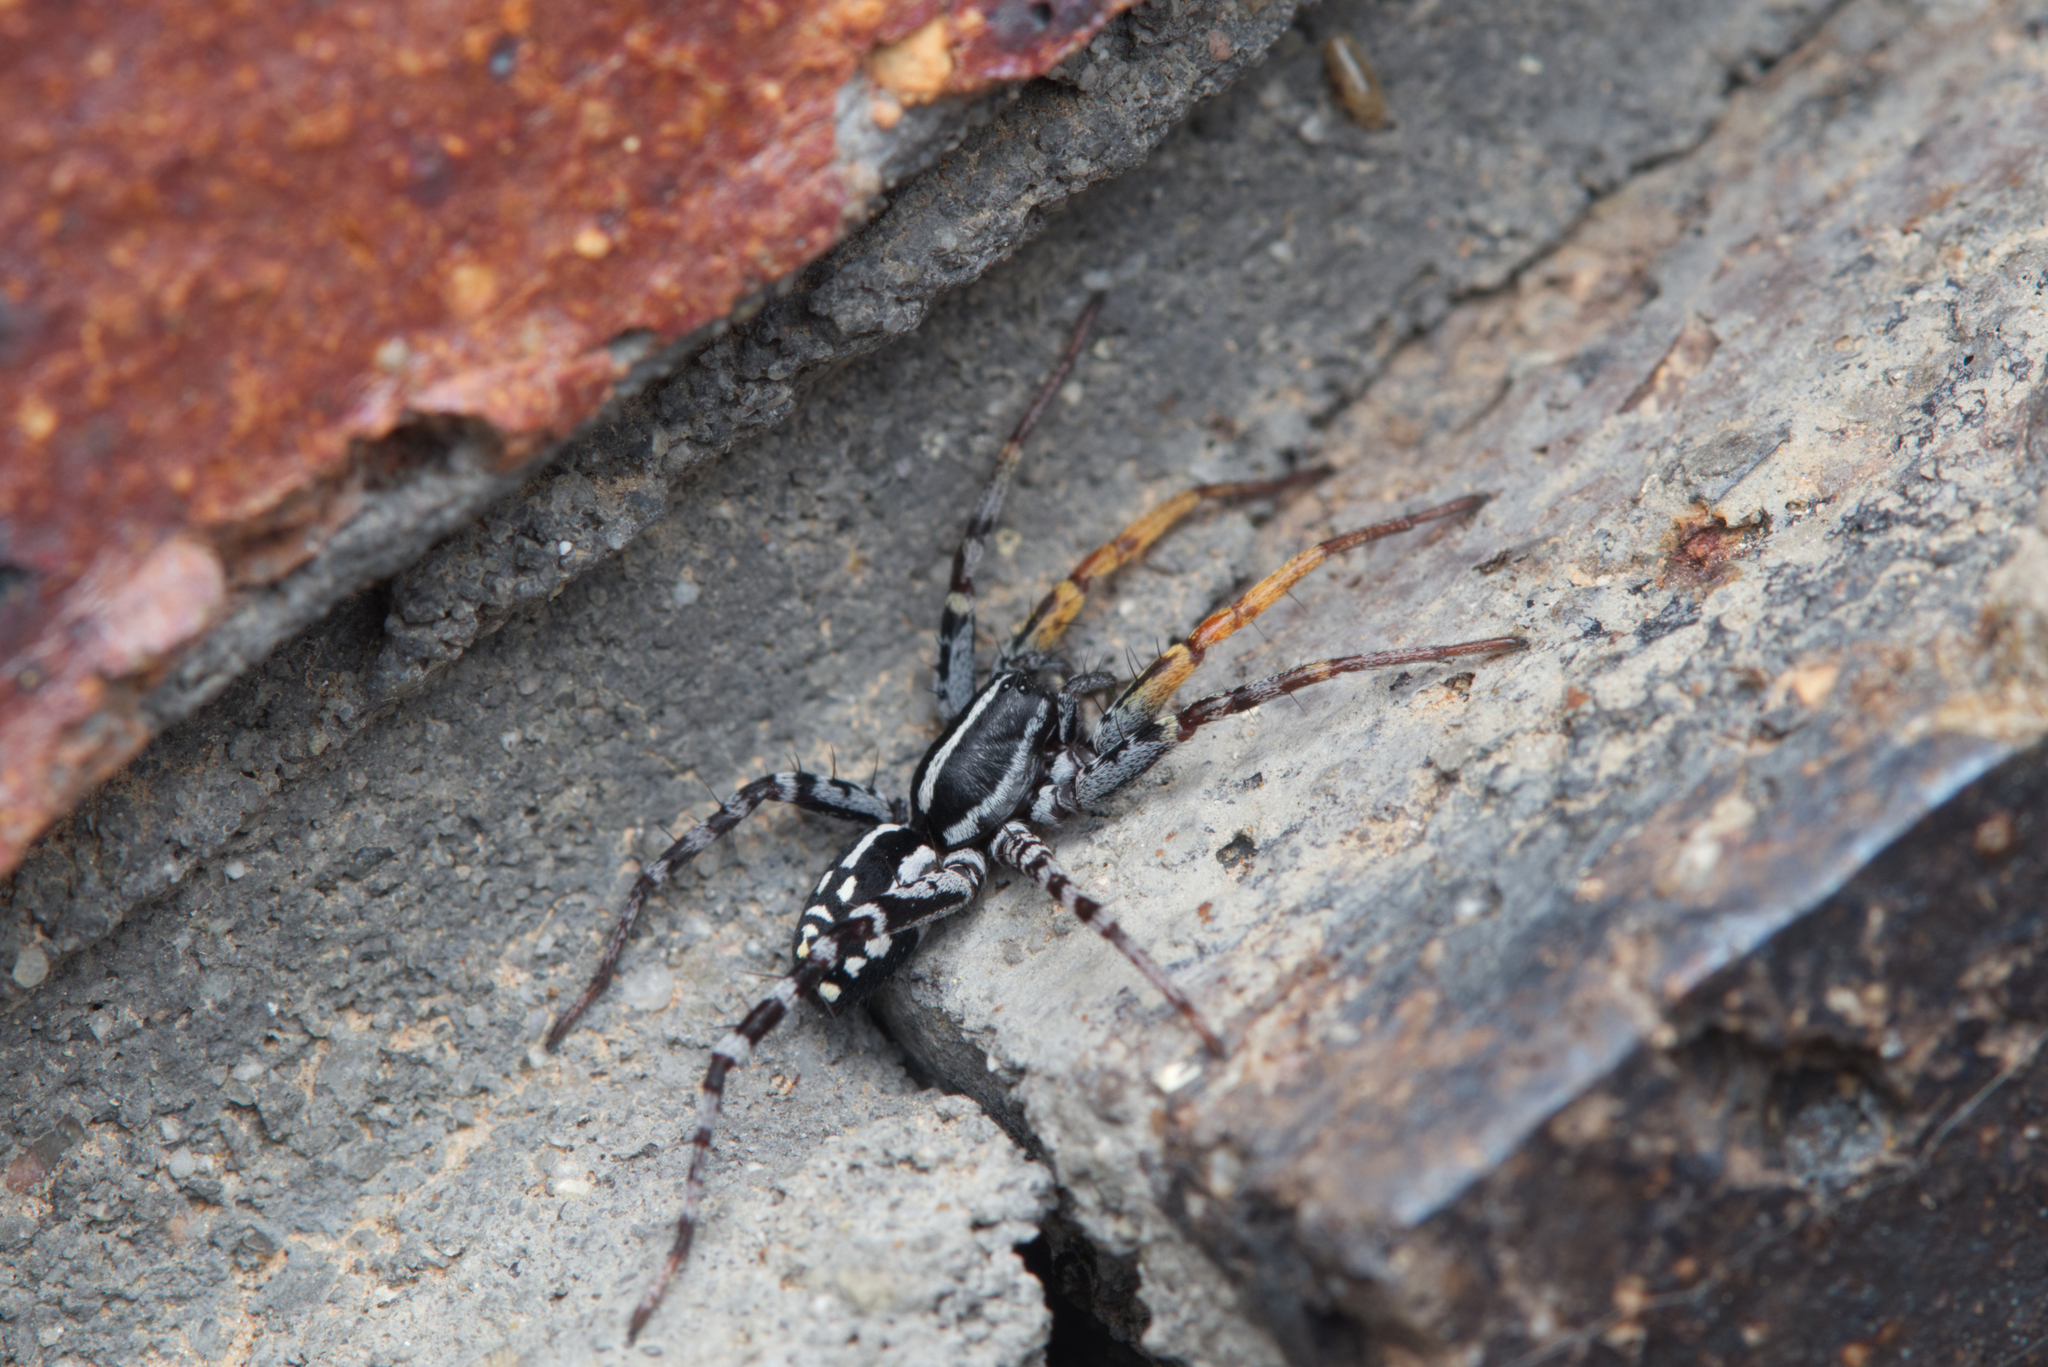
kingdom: Animalia
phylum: Arthropoda
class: Arachnida
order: Araneae
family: Corinnidae
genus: Nyssus
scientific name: Nyssus coloripes
